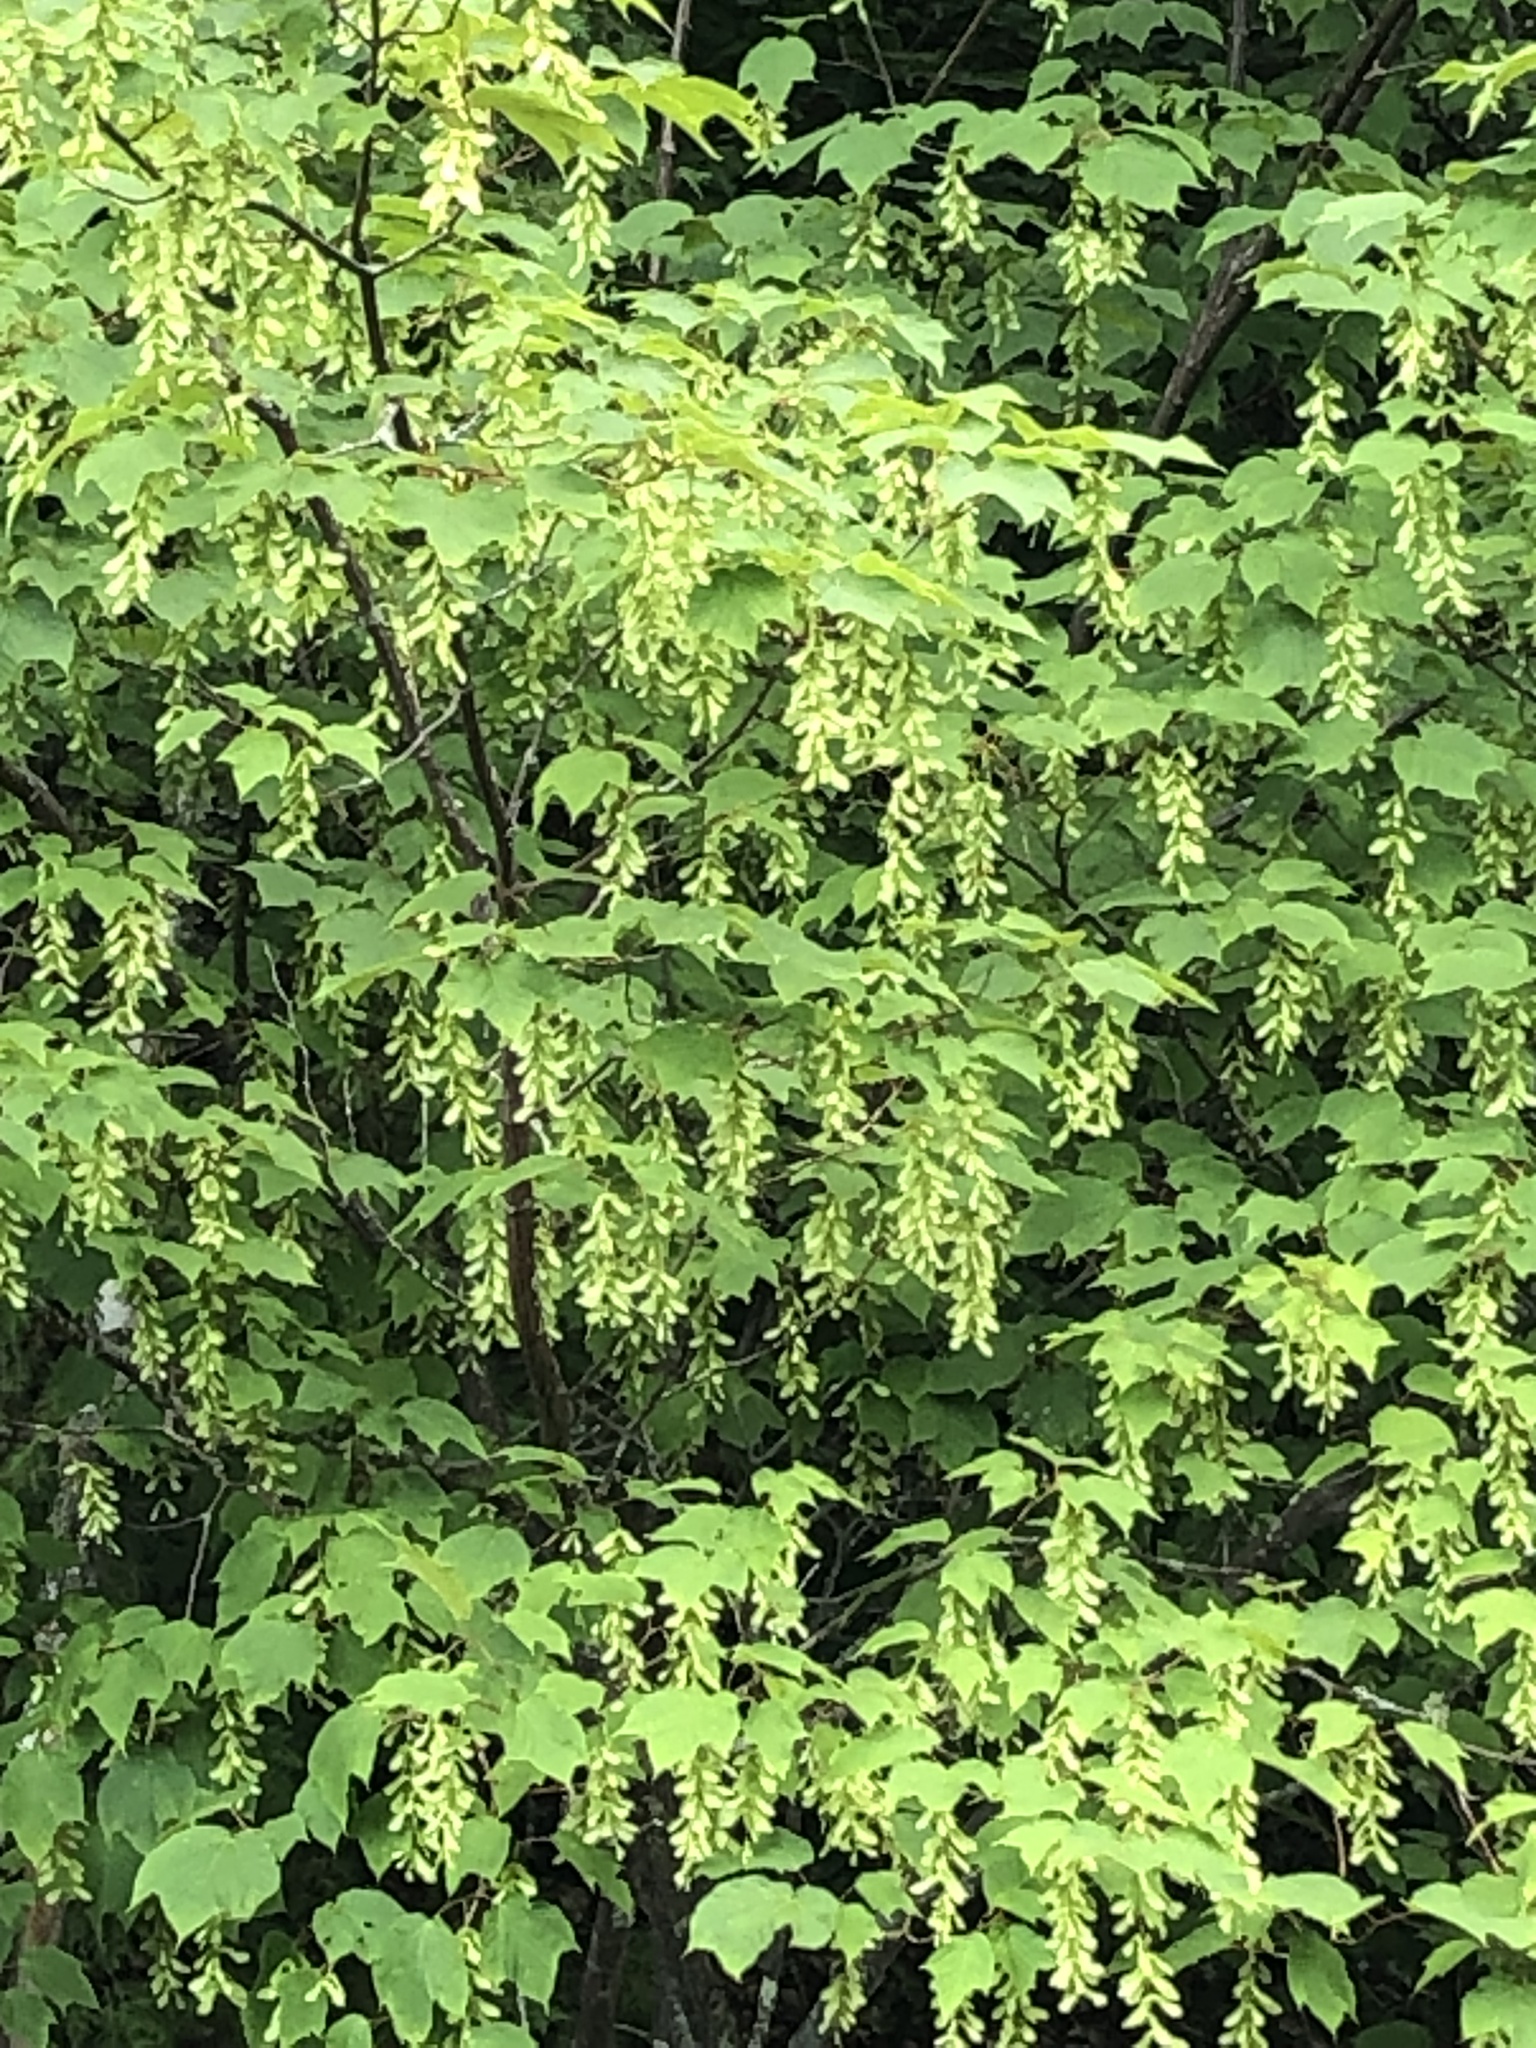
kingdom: Plantae
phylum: Tracheophyta
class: Magnoliopsida
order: Sapindales
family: Sapindaceae
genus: Acer
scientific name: Acer pensylvanicum
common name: Moosewood
